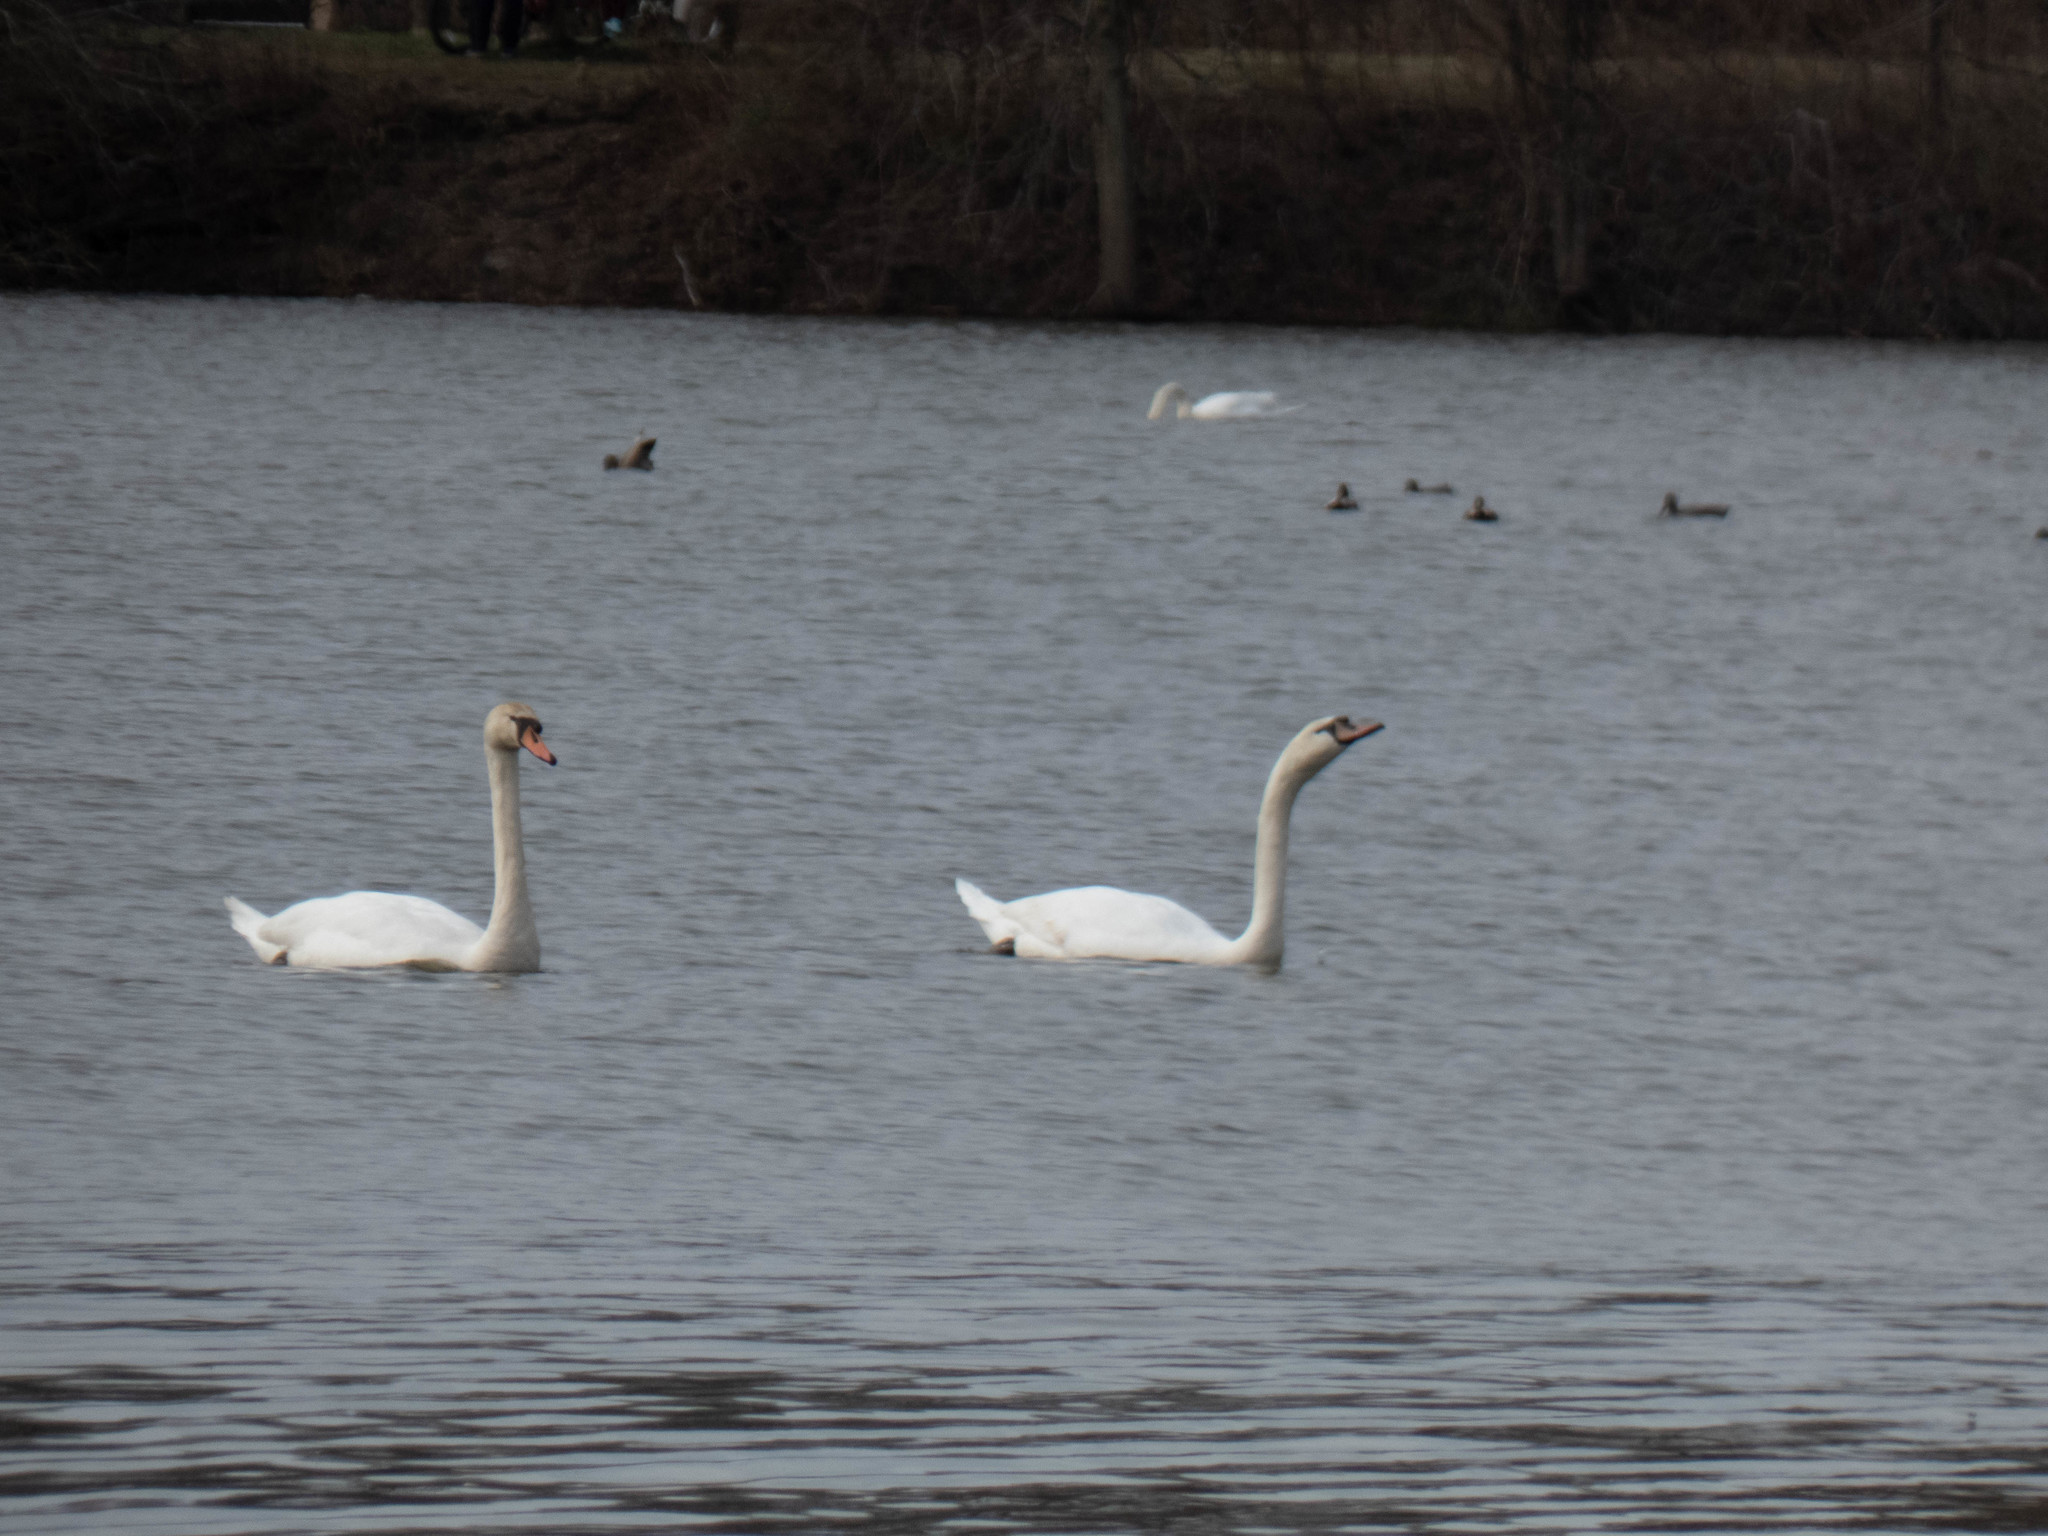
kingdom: Animalia
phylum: Chordata
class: Aves
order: Anseriformes
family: Anatidae
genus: Cygnus
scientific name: Cygnus olor
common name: Mute swan
